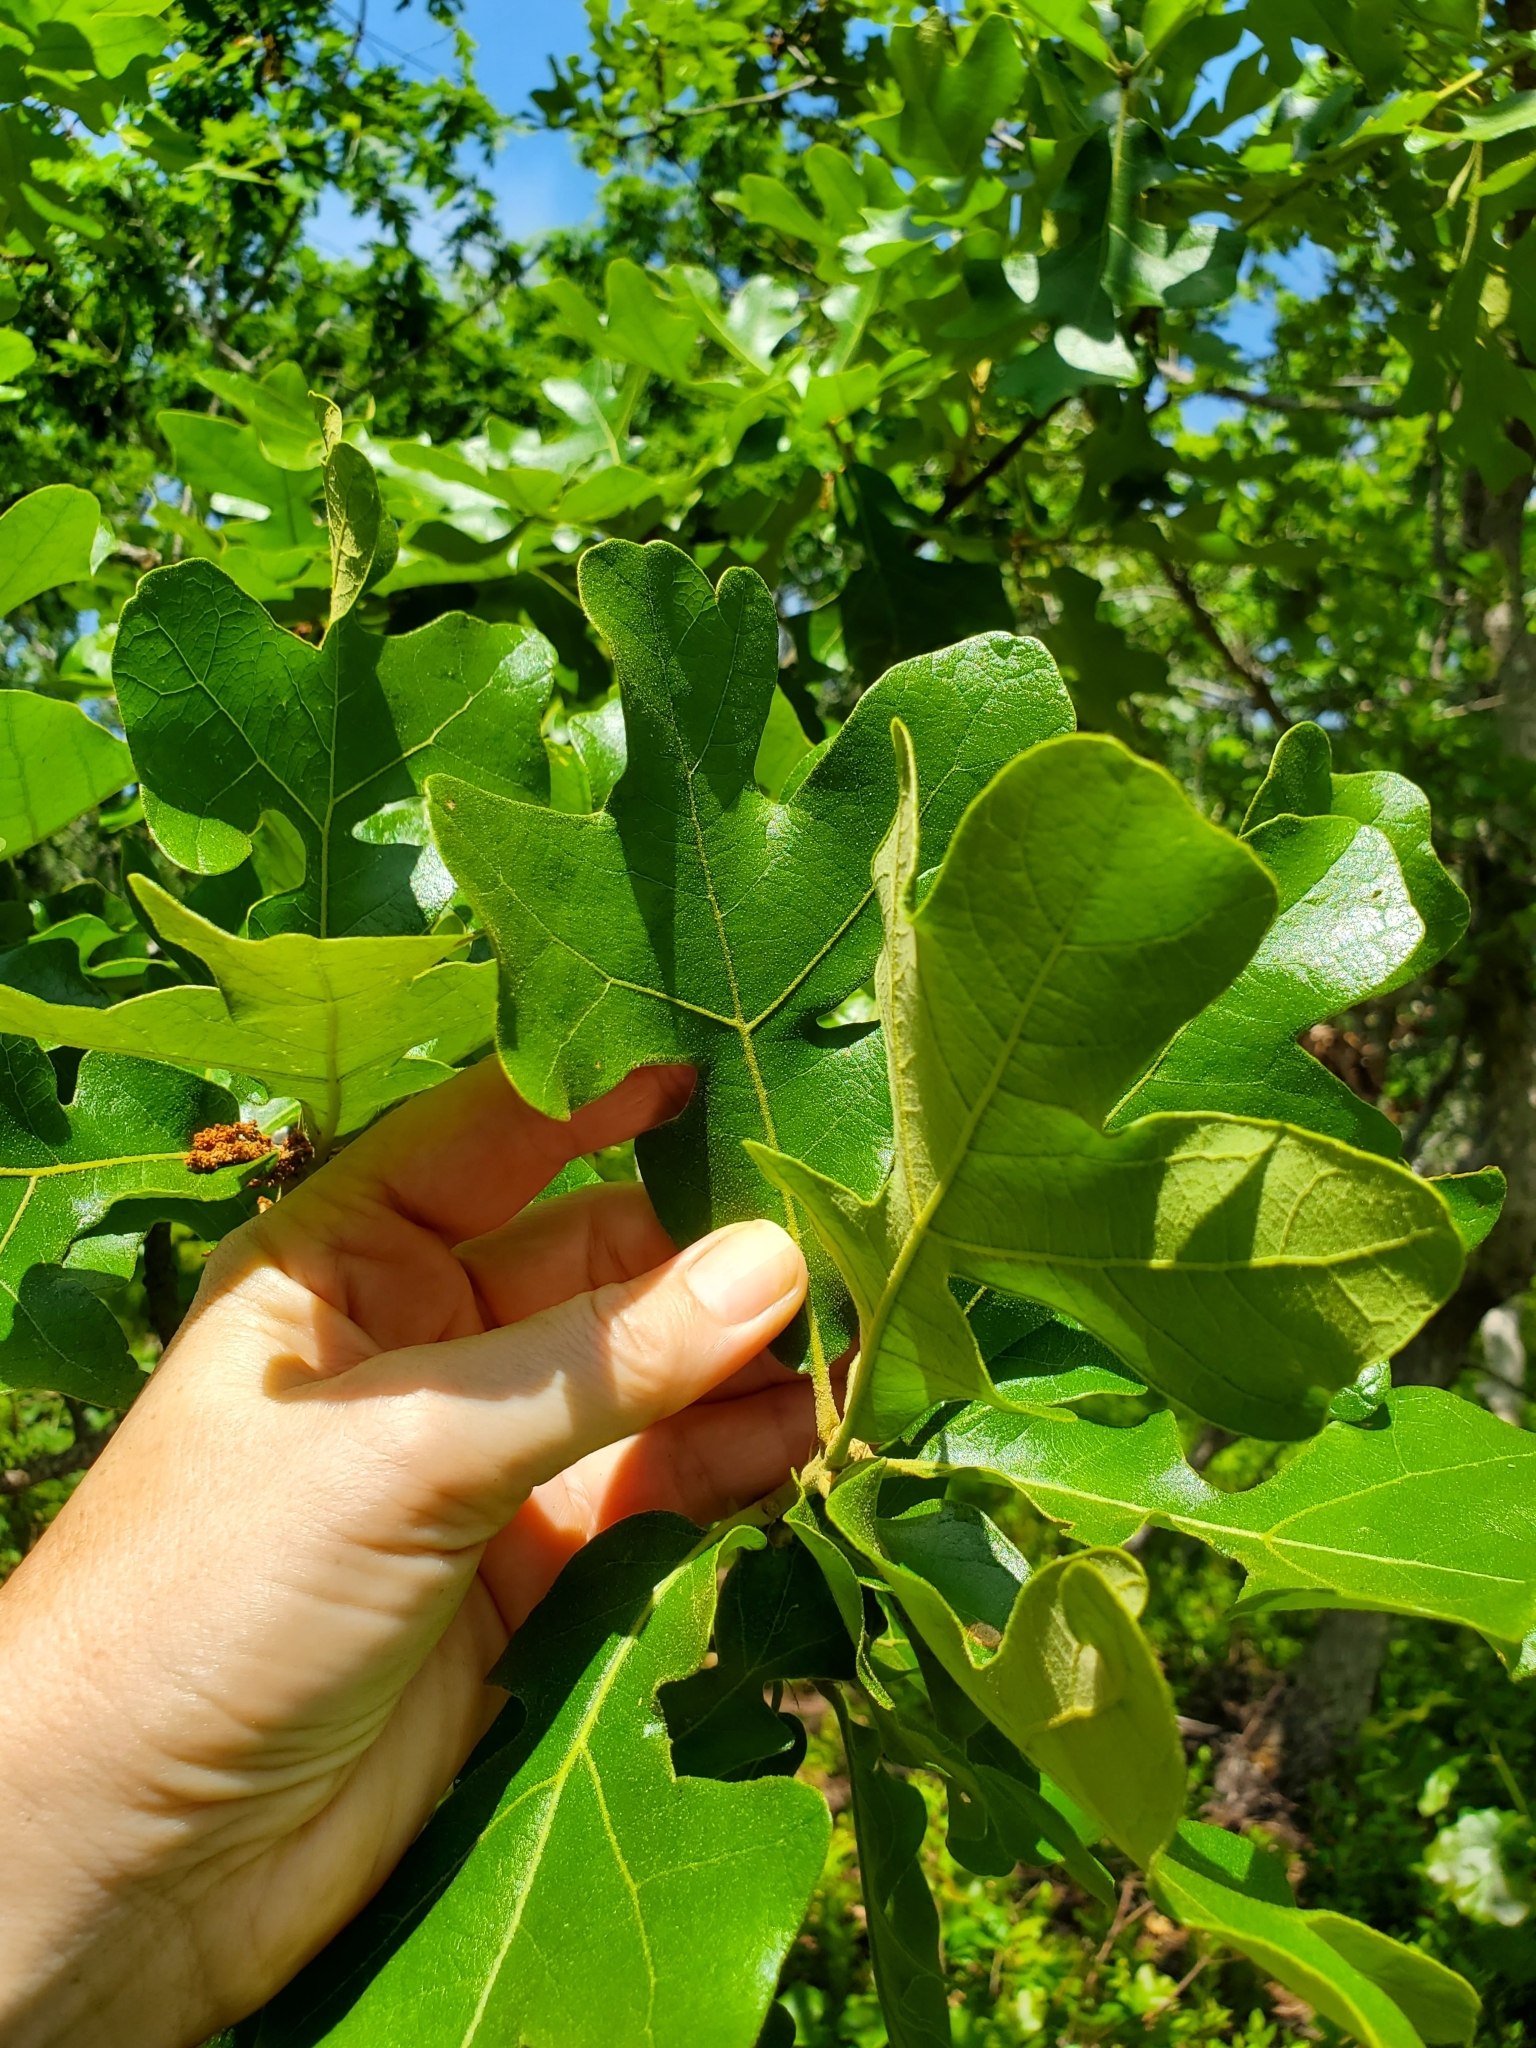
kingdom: Plantae
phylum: Tracheophyta
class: Magnoliopsida
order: Fagales
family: Fagaceae
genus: Quercus
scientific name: Quercus stellata
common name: Post oak
